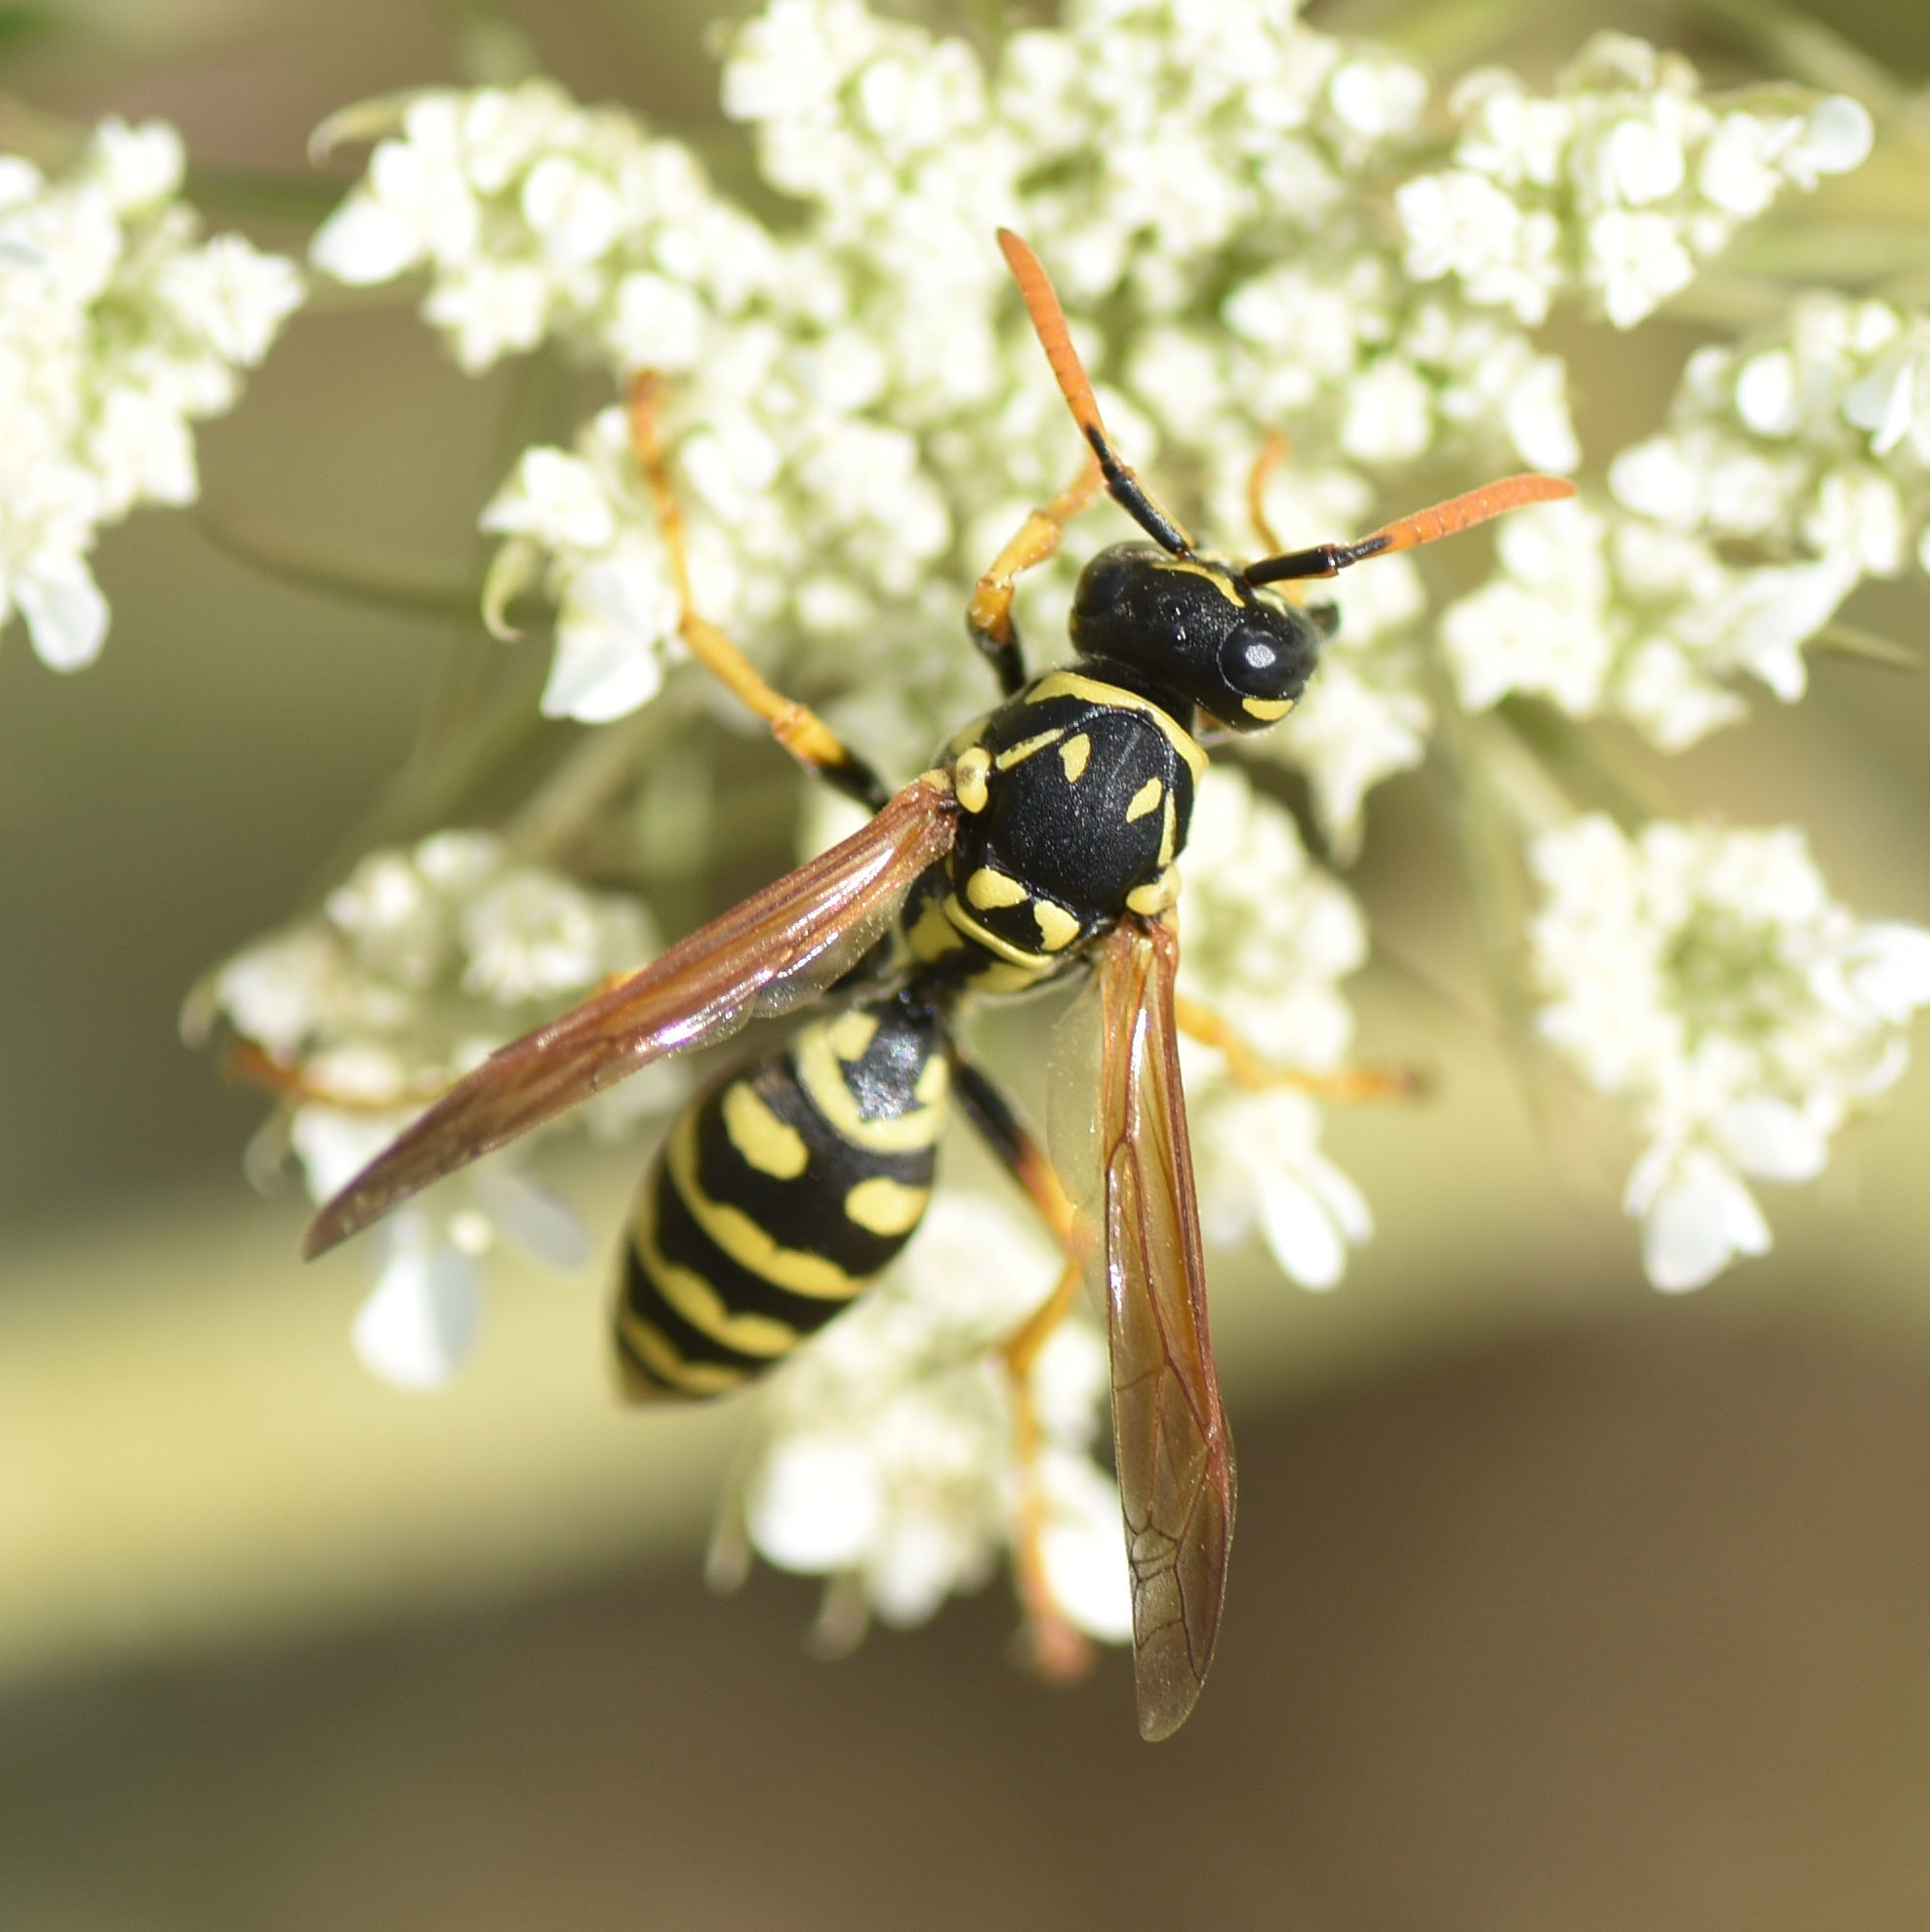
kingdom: Animalia
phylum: Arthropoda
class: Insecta
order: Hymenoptera
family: Eumenidae
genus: Polistes
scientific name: Polistes dominula
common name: Paper wasp
